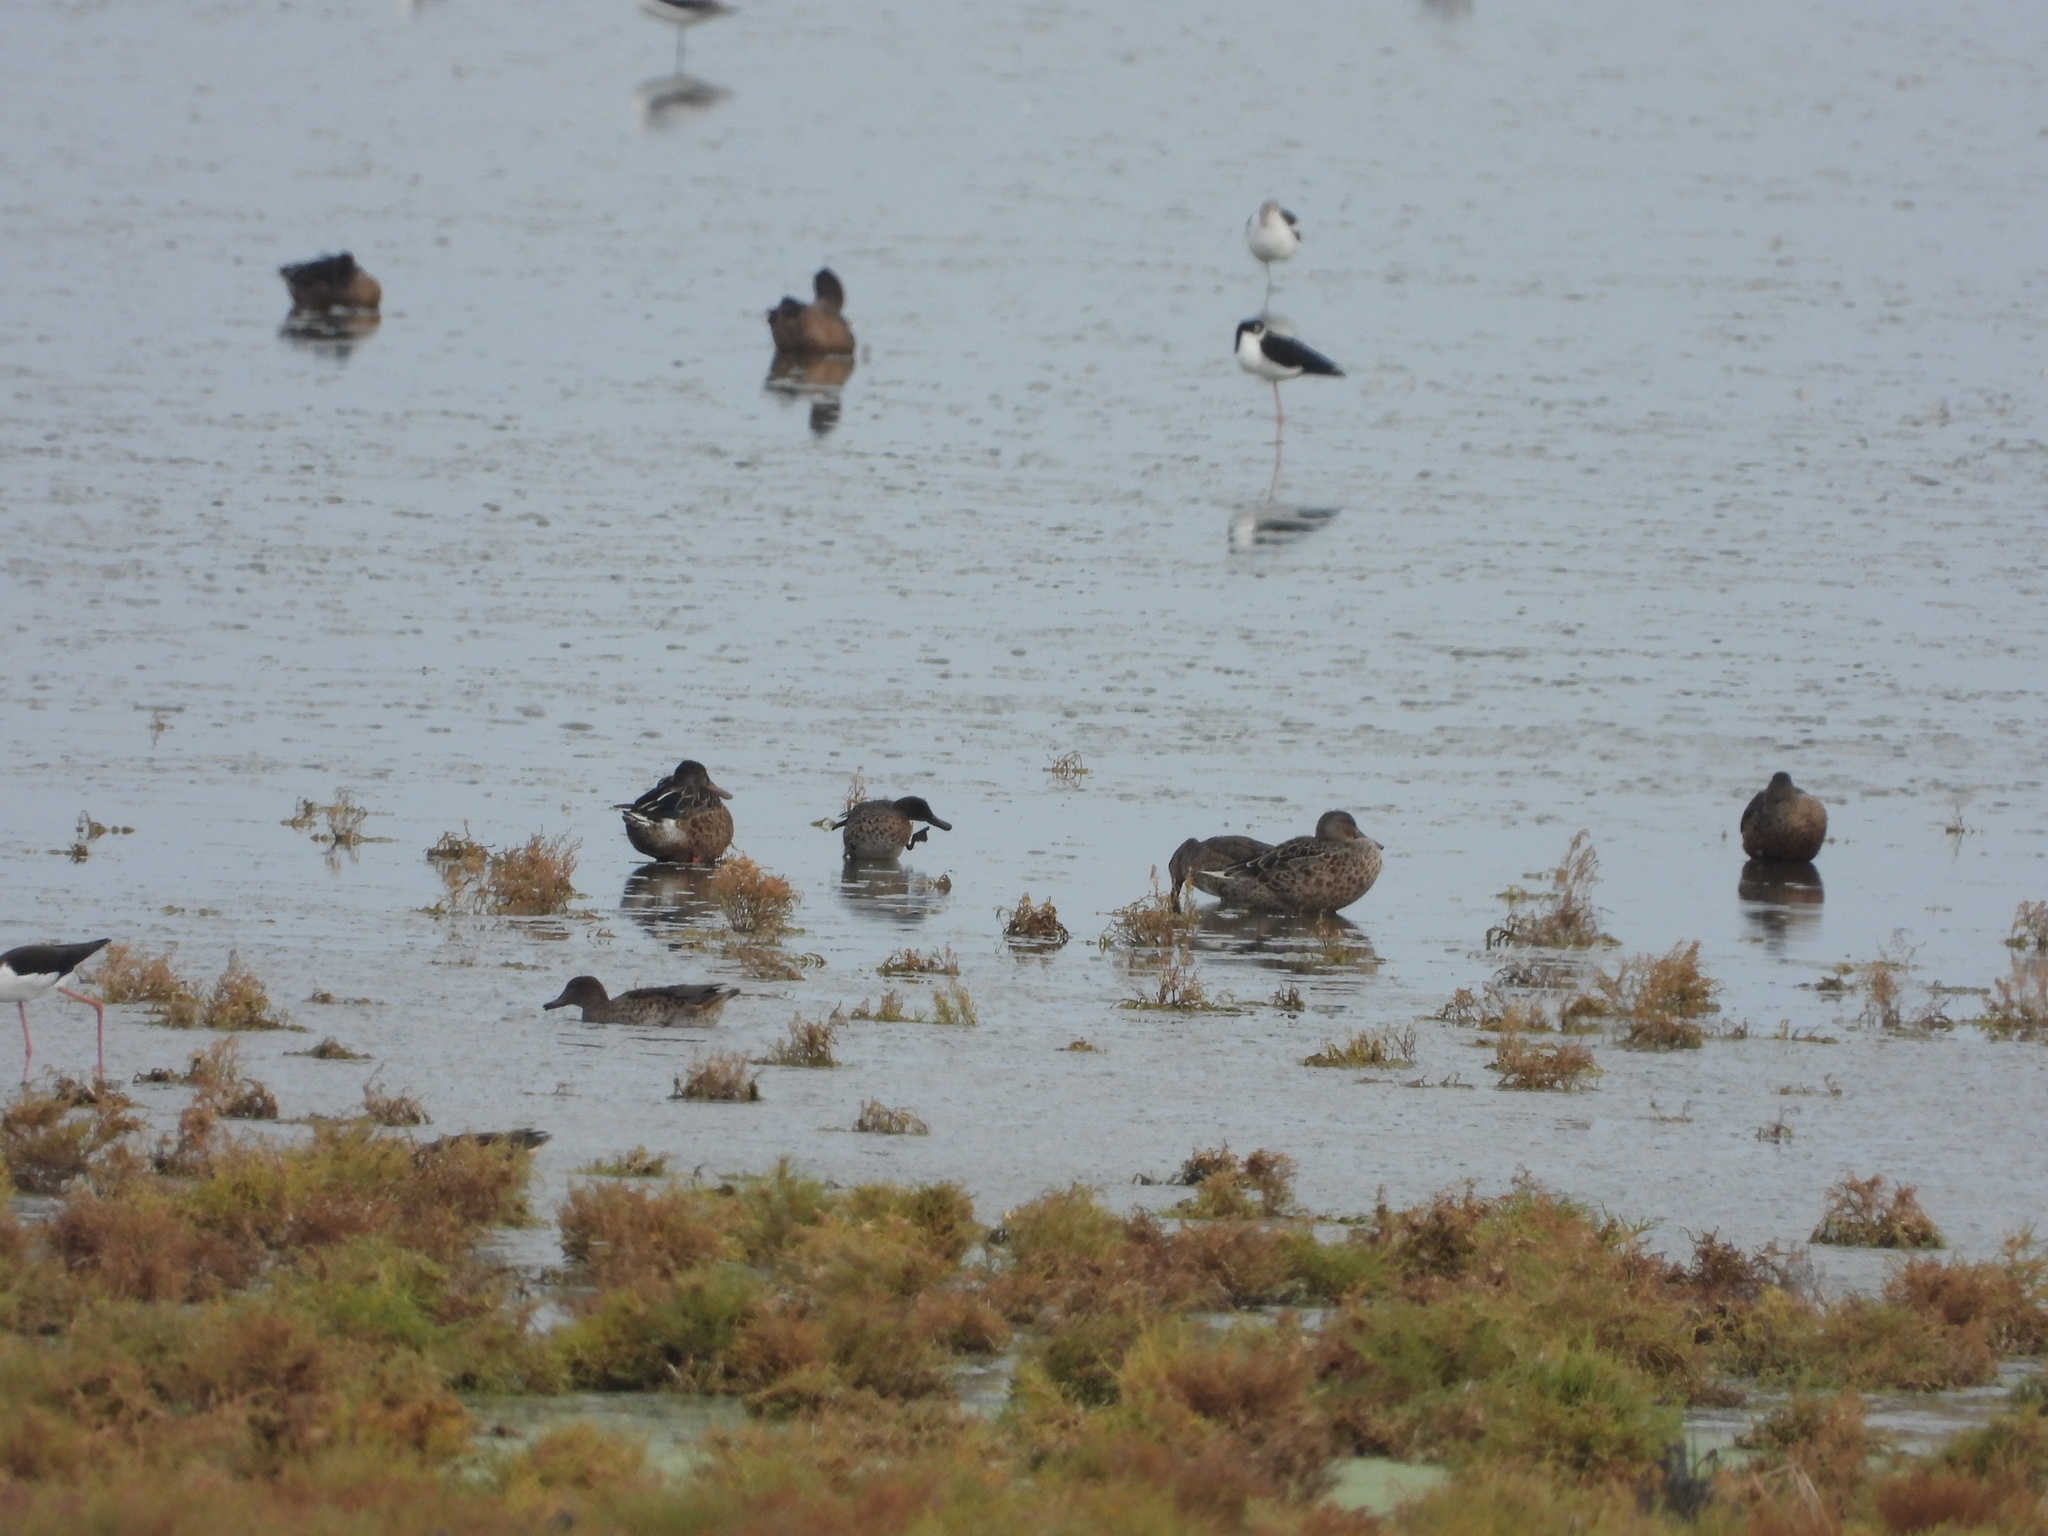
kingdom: Animalia
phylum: Chordata
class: Aves
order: Anseriformes
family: Anatidae
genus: Anas
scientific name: Anas crecca
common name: Eurasian teal
